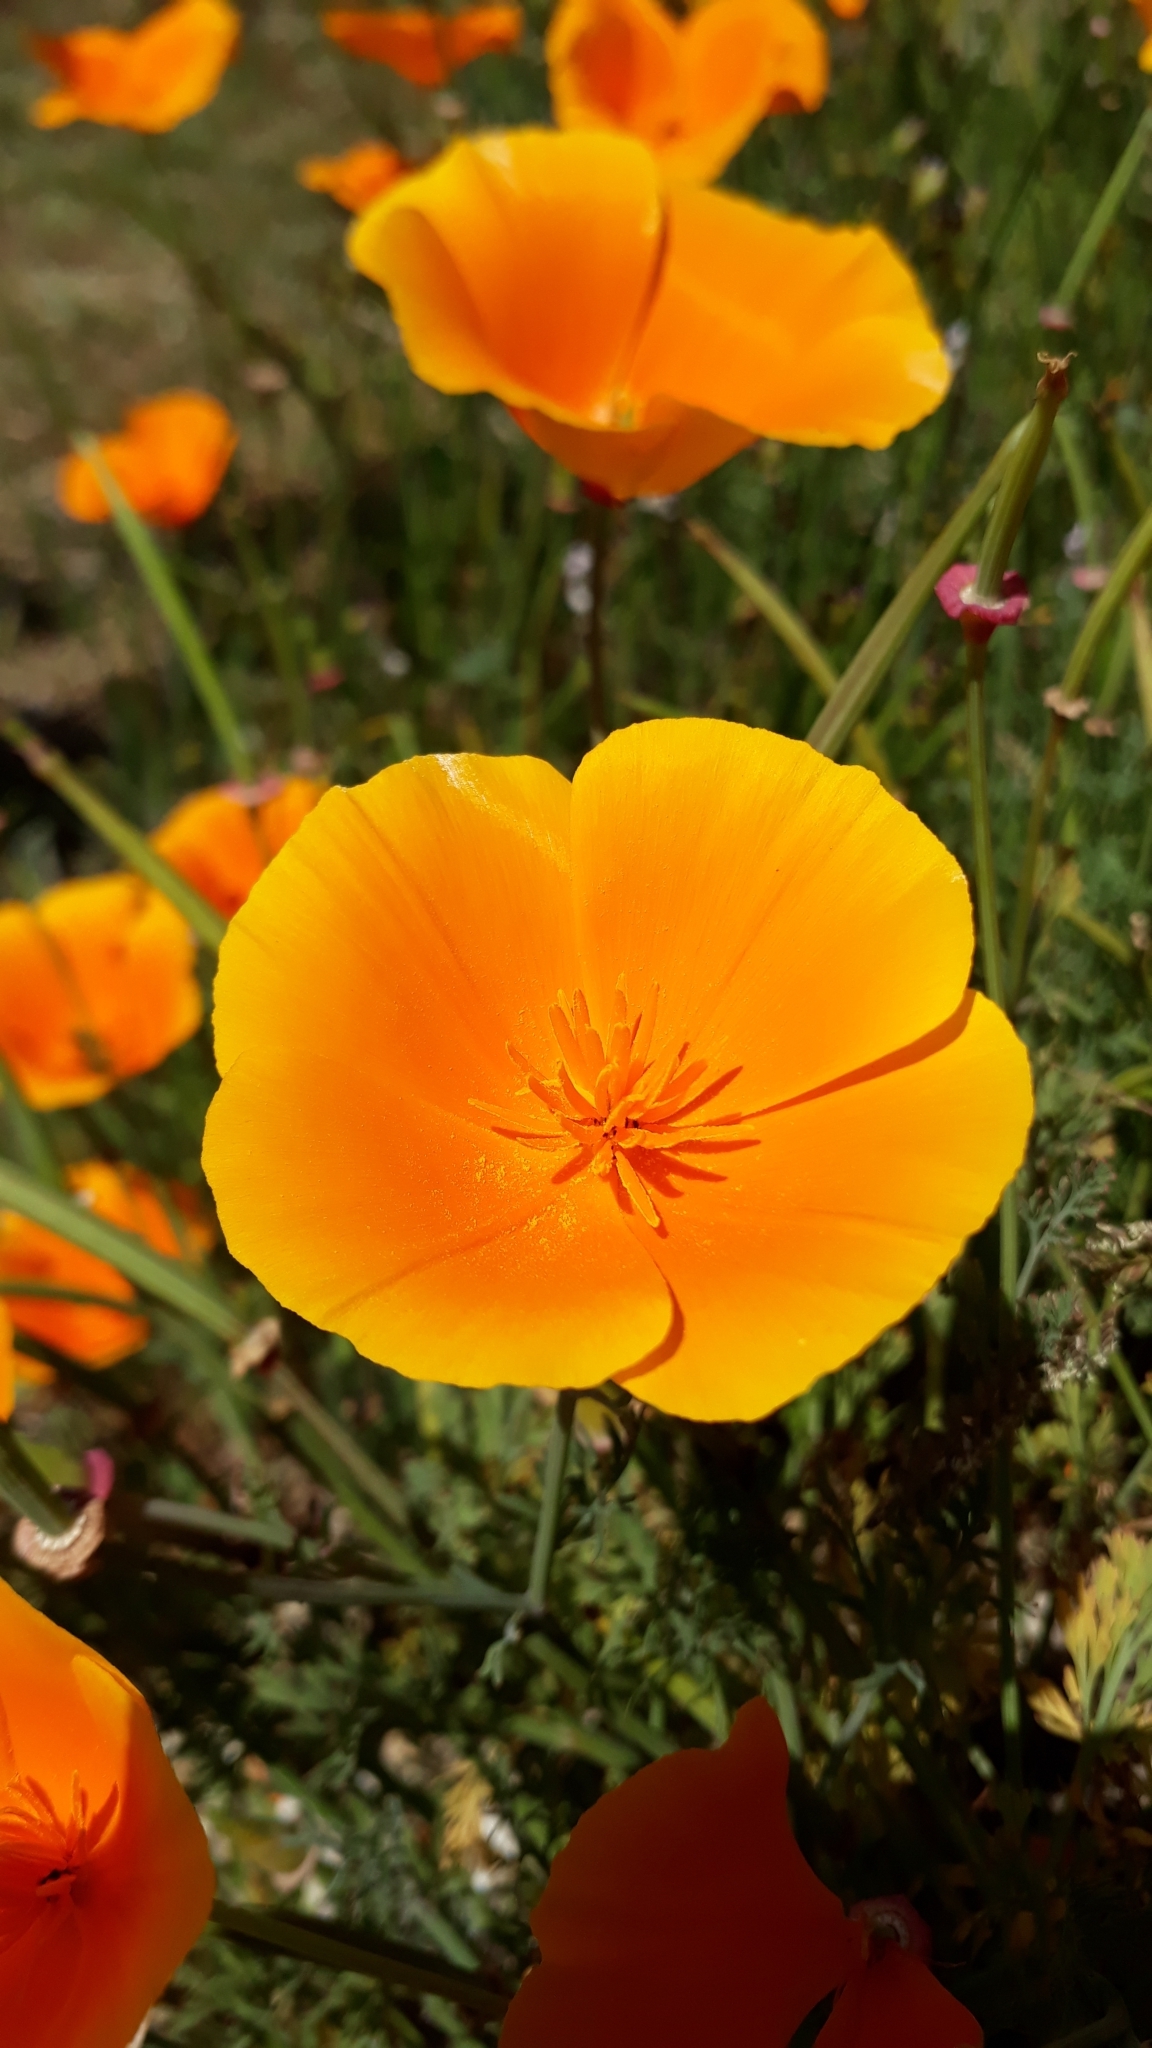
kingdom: Plantae
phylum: Tracheophyta
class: Magnoliopsida
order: Ranunculales
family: Papaveraceae
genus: Eschscholzia
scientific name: Eschscholzia californica
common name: California poppy
